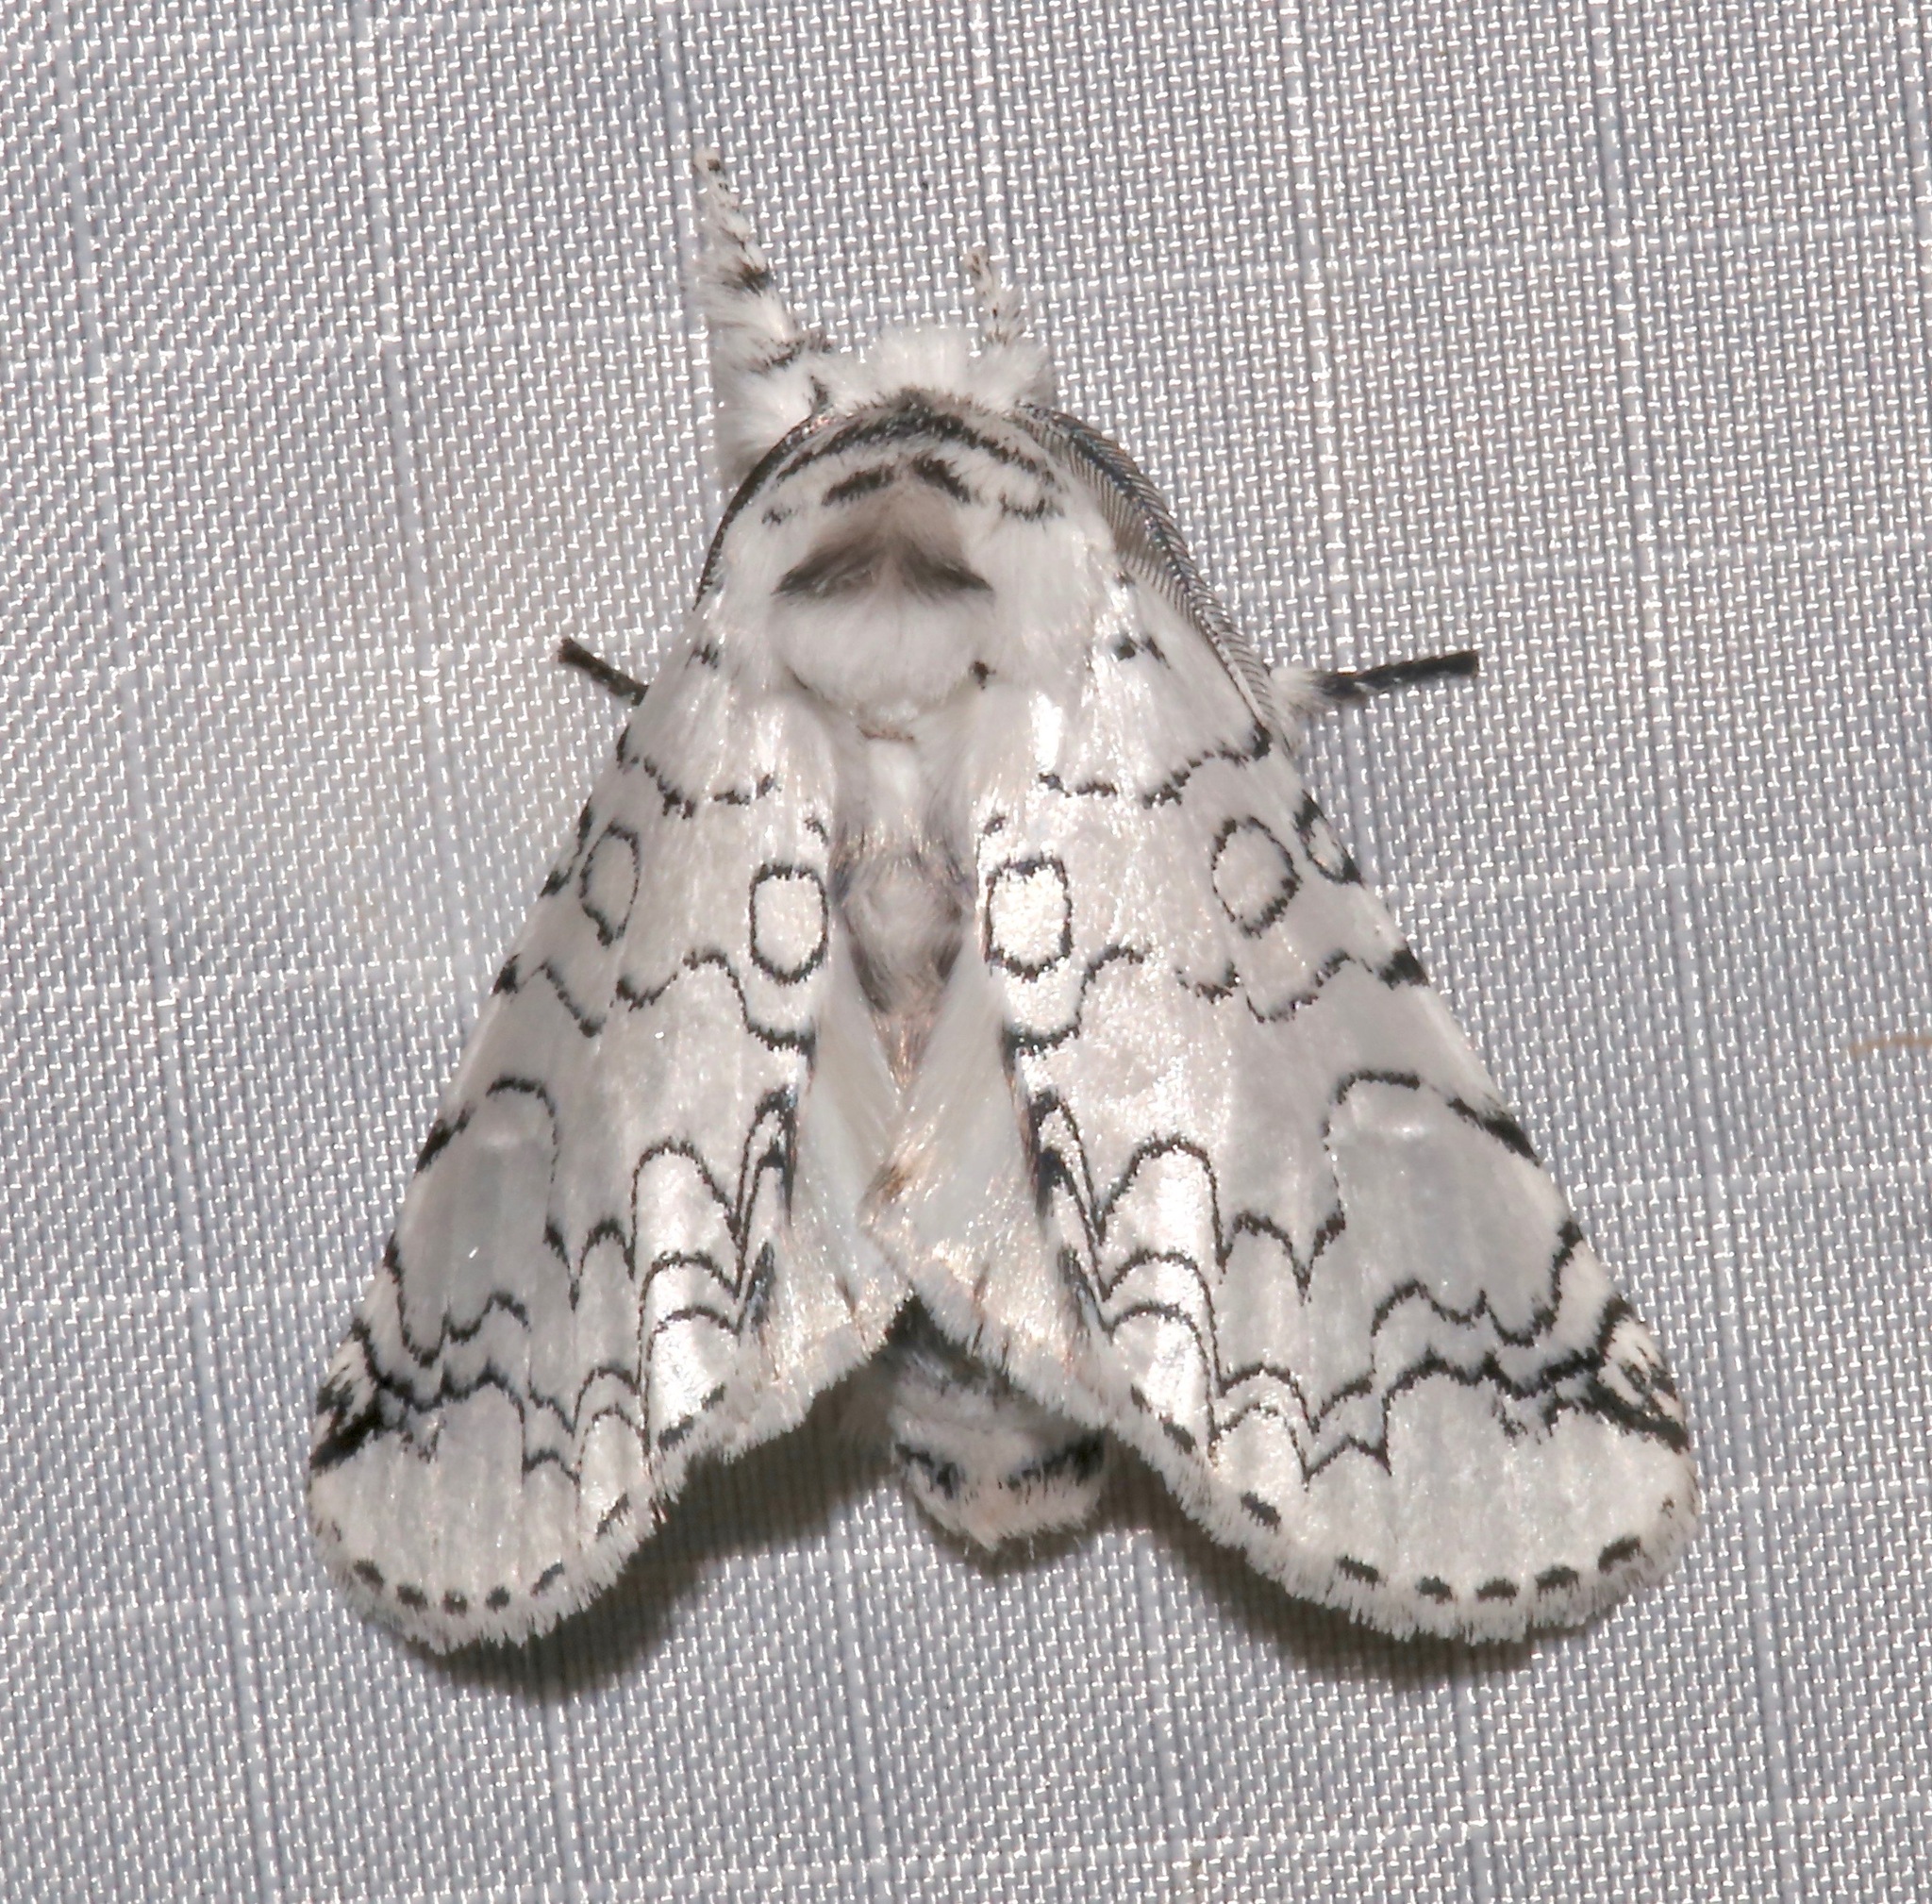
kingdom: Animalia
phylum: Arthropoda
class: Insecta
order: Lepidoptera
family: Notodontidae
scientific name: Notodontidae
